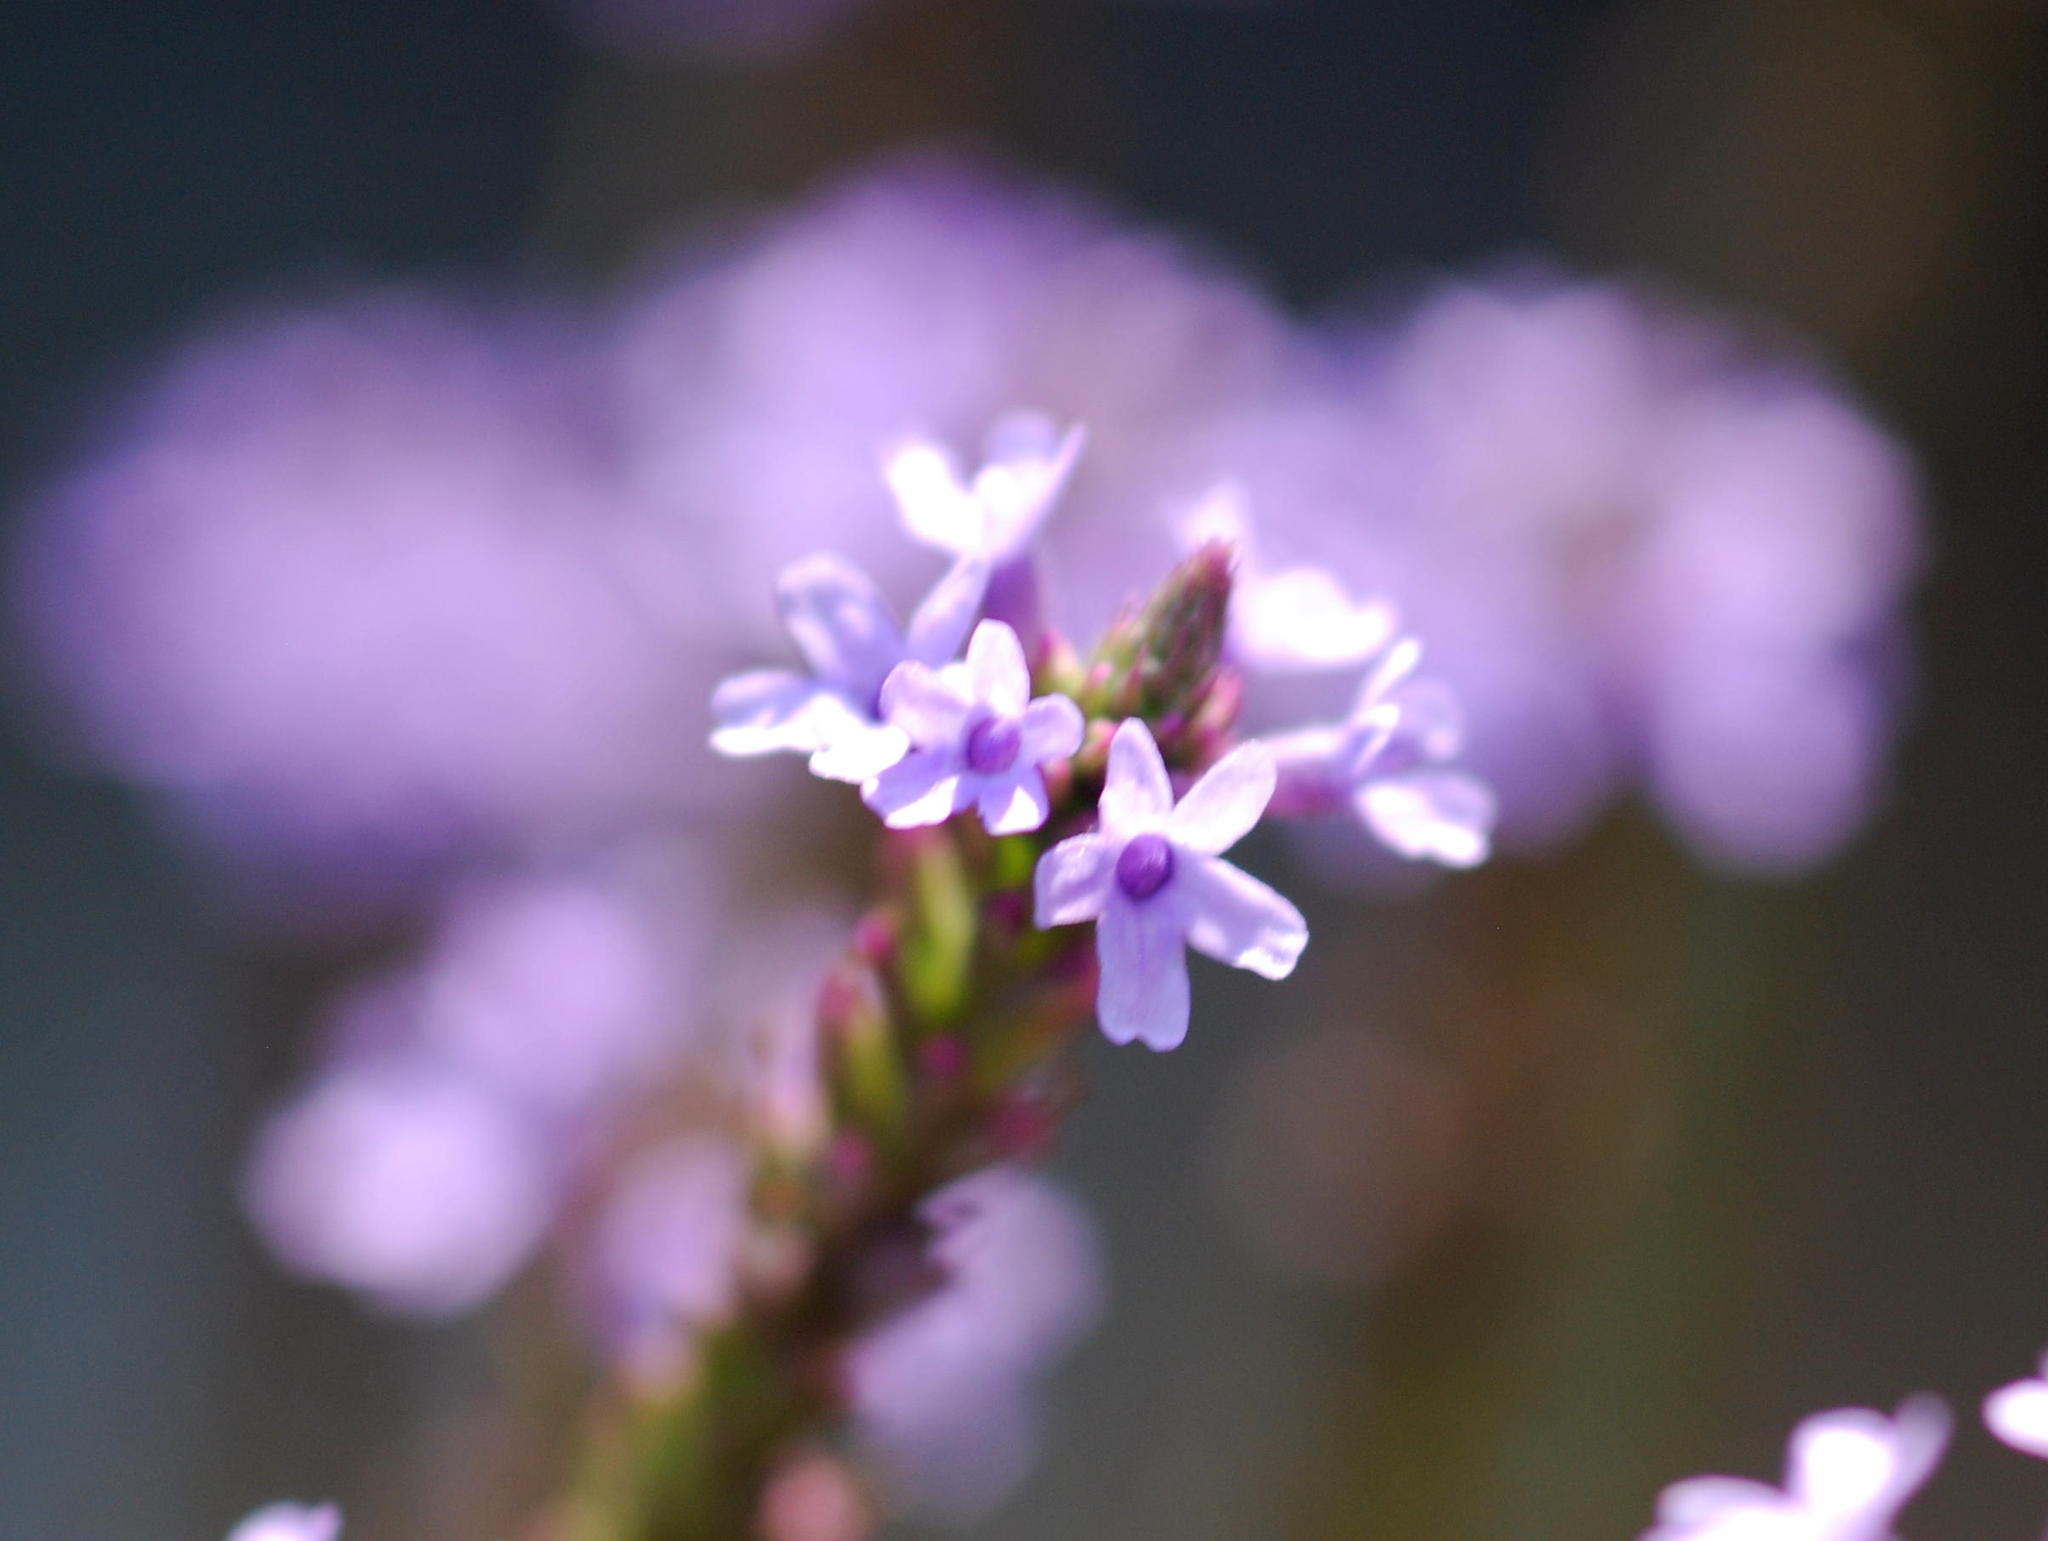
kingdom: Plantae
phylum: Tracheophyta
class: Magnoliopsida
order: Lamiales
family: Verbenaceae
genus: Verbena
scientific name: Verbena hastata
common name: American blue vervain
